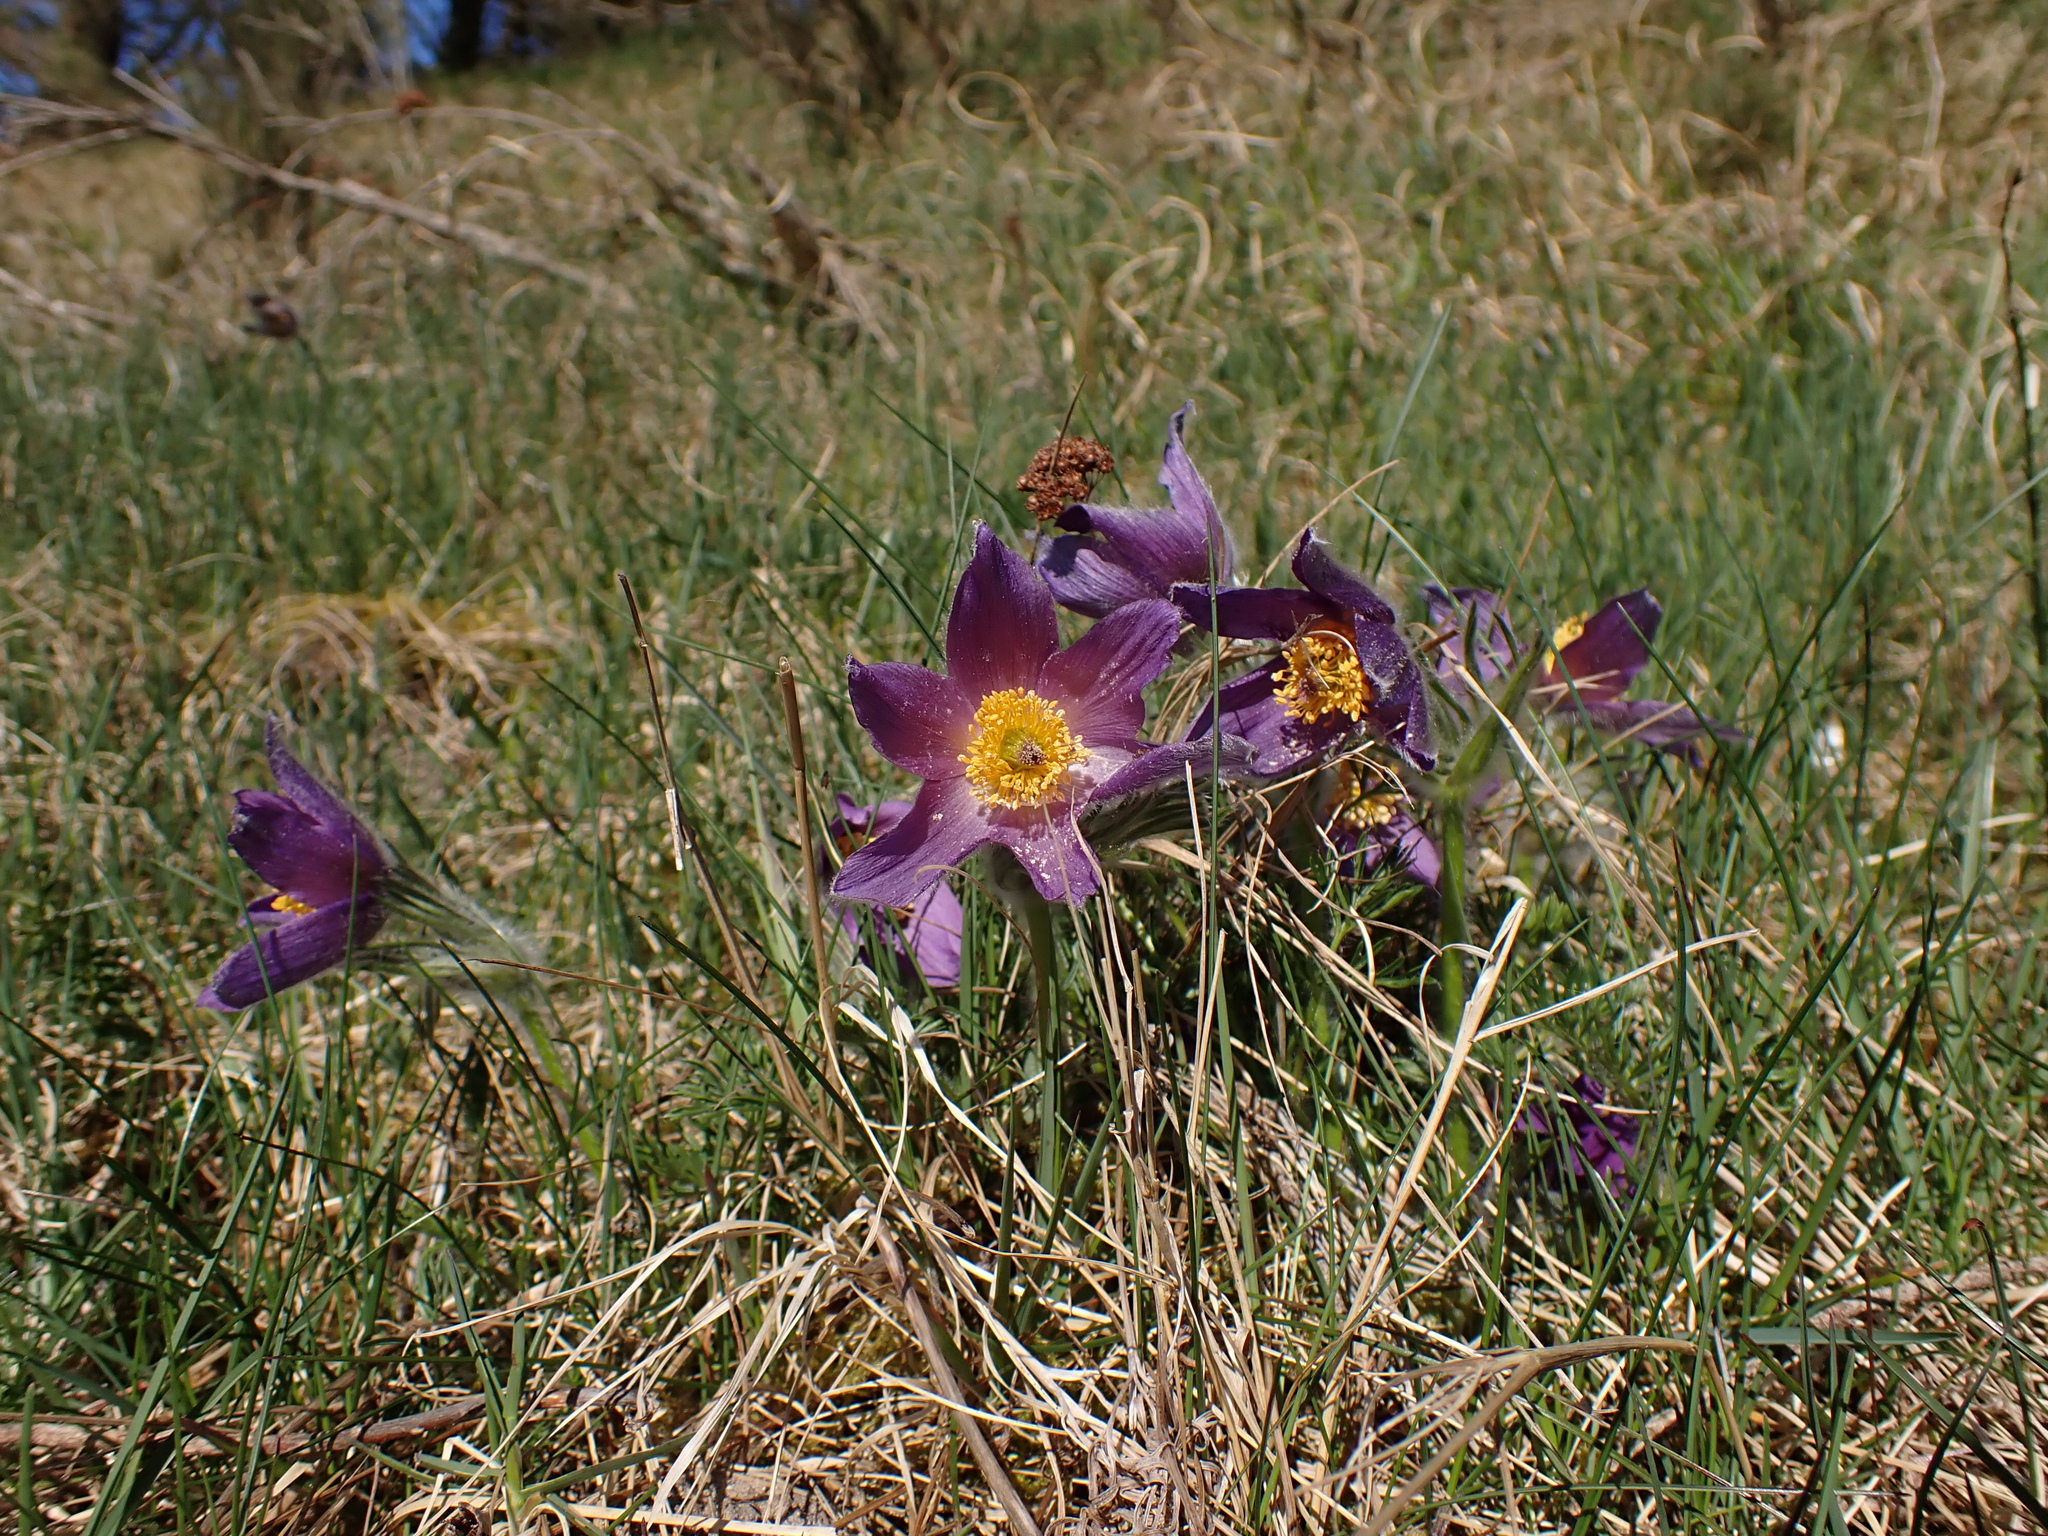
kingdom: Plantae
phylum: Tracheophyta
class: Magnoliopsida
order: Ranunculales
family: Ranunculaceae
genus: Pulsatilla
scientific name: Pulsatilla vulgaris
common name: Pasqueflower
